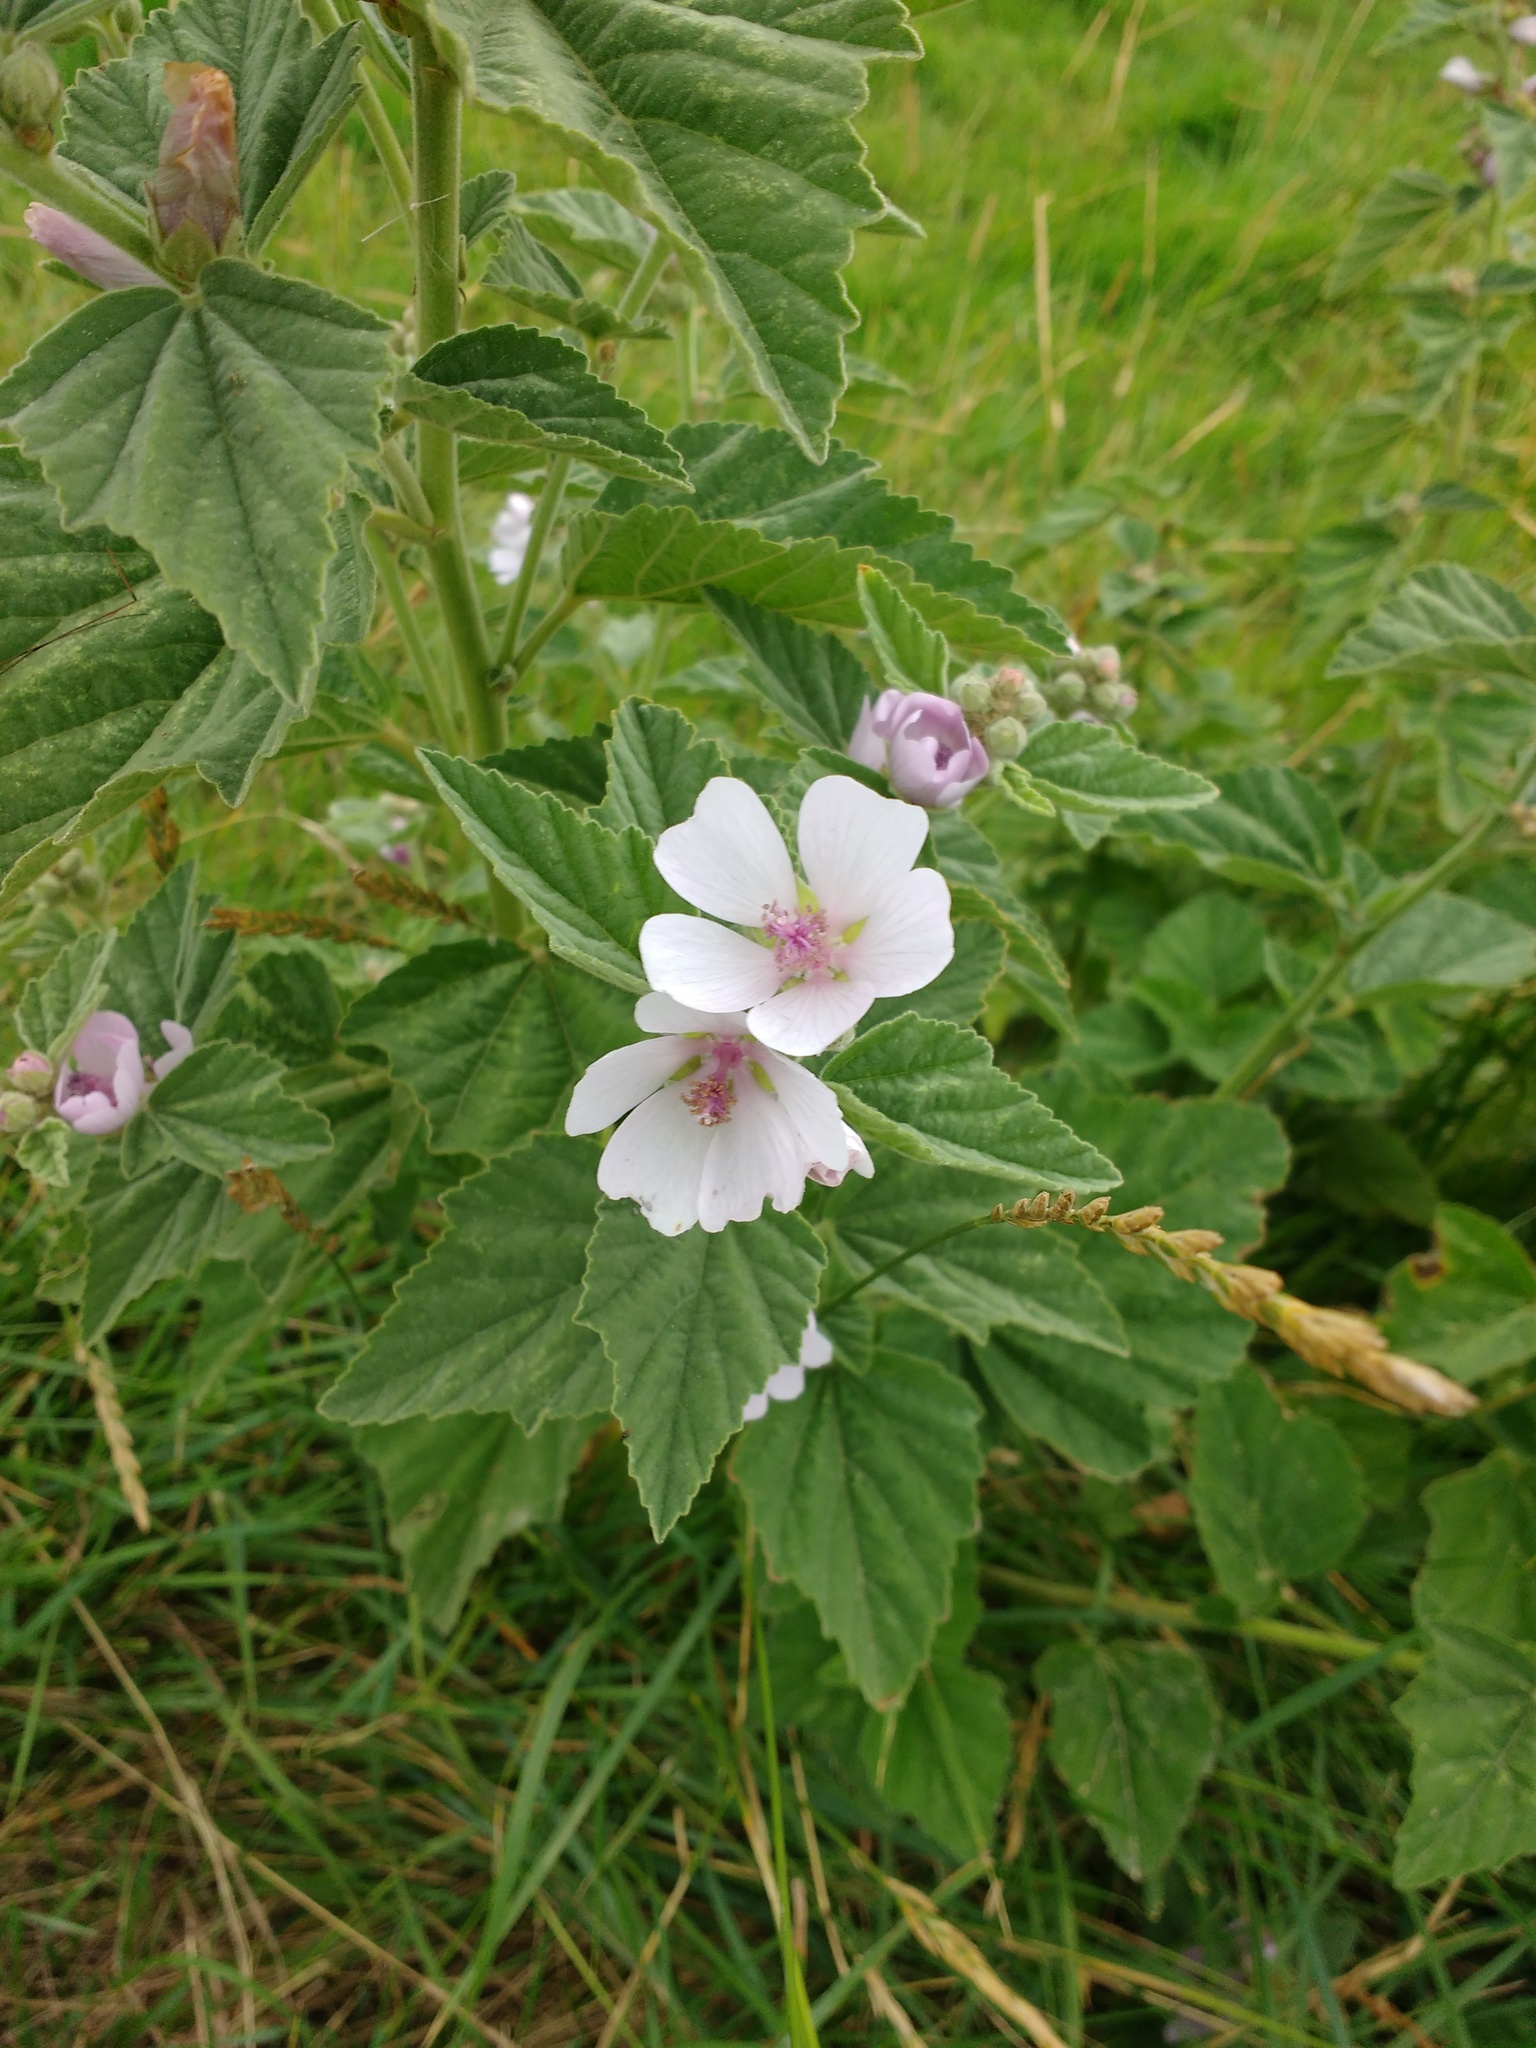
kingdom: Plantae
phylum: Tracheophyta
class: Magnoliopsida
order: Malvales
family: Malvaceae
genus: Althaea
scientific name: Althaea officinalis
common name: Marsh-mallow
